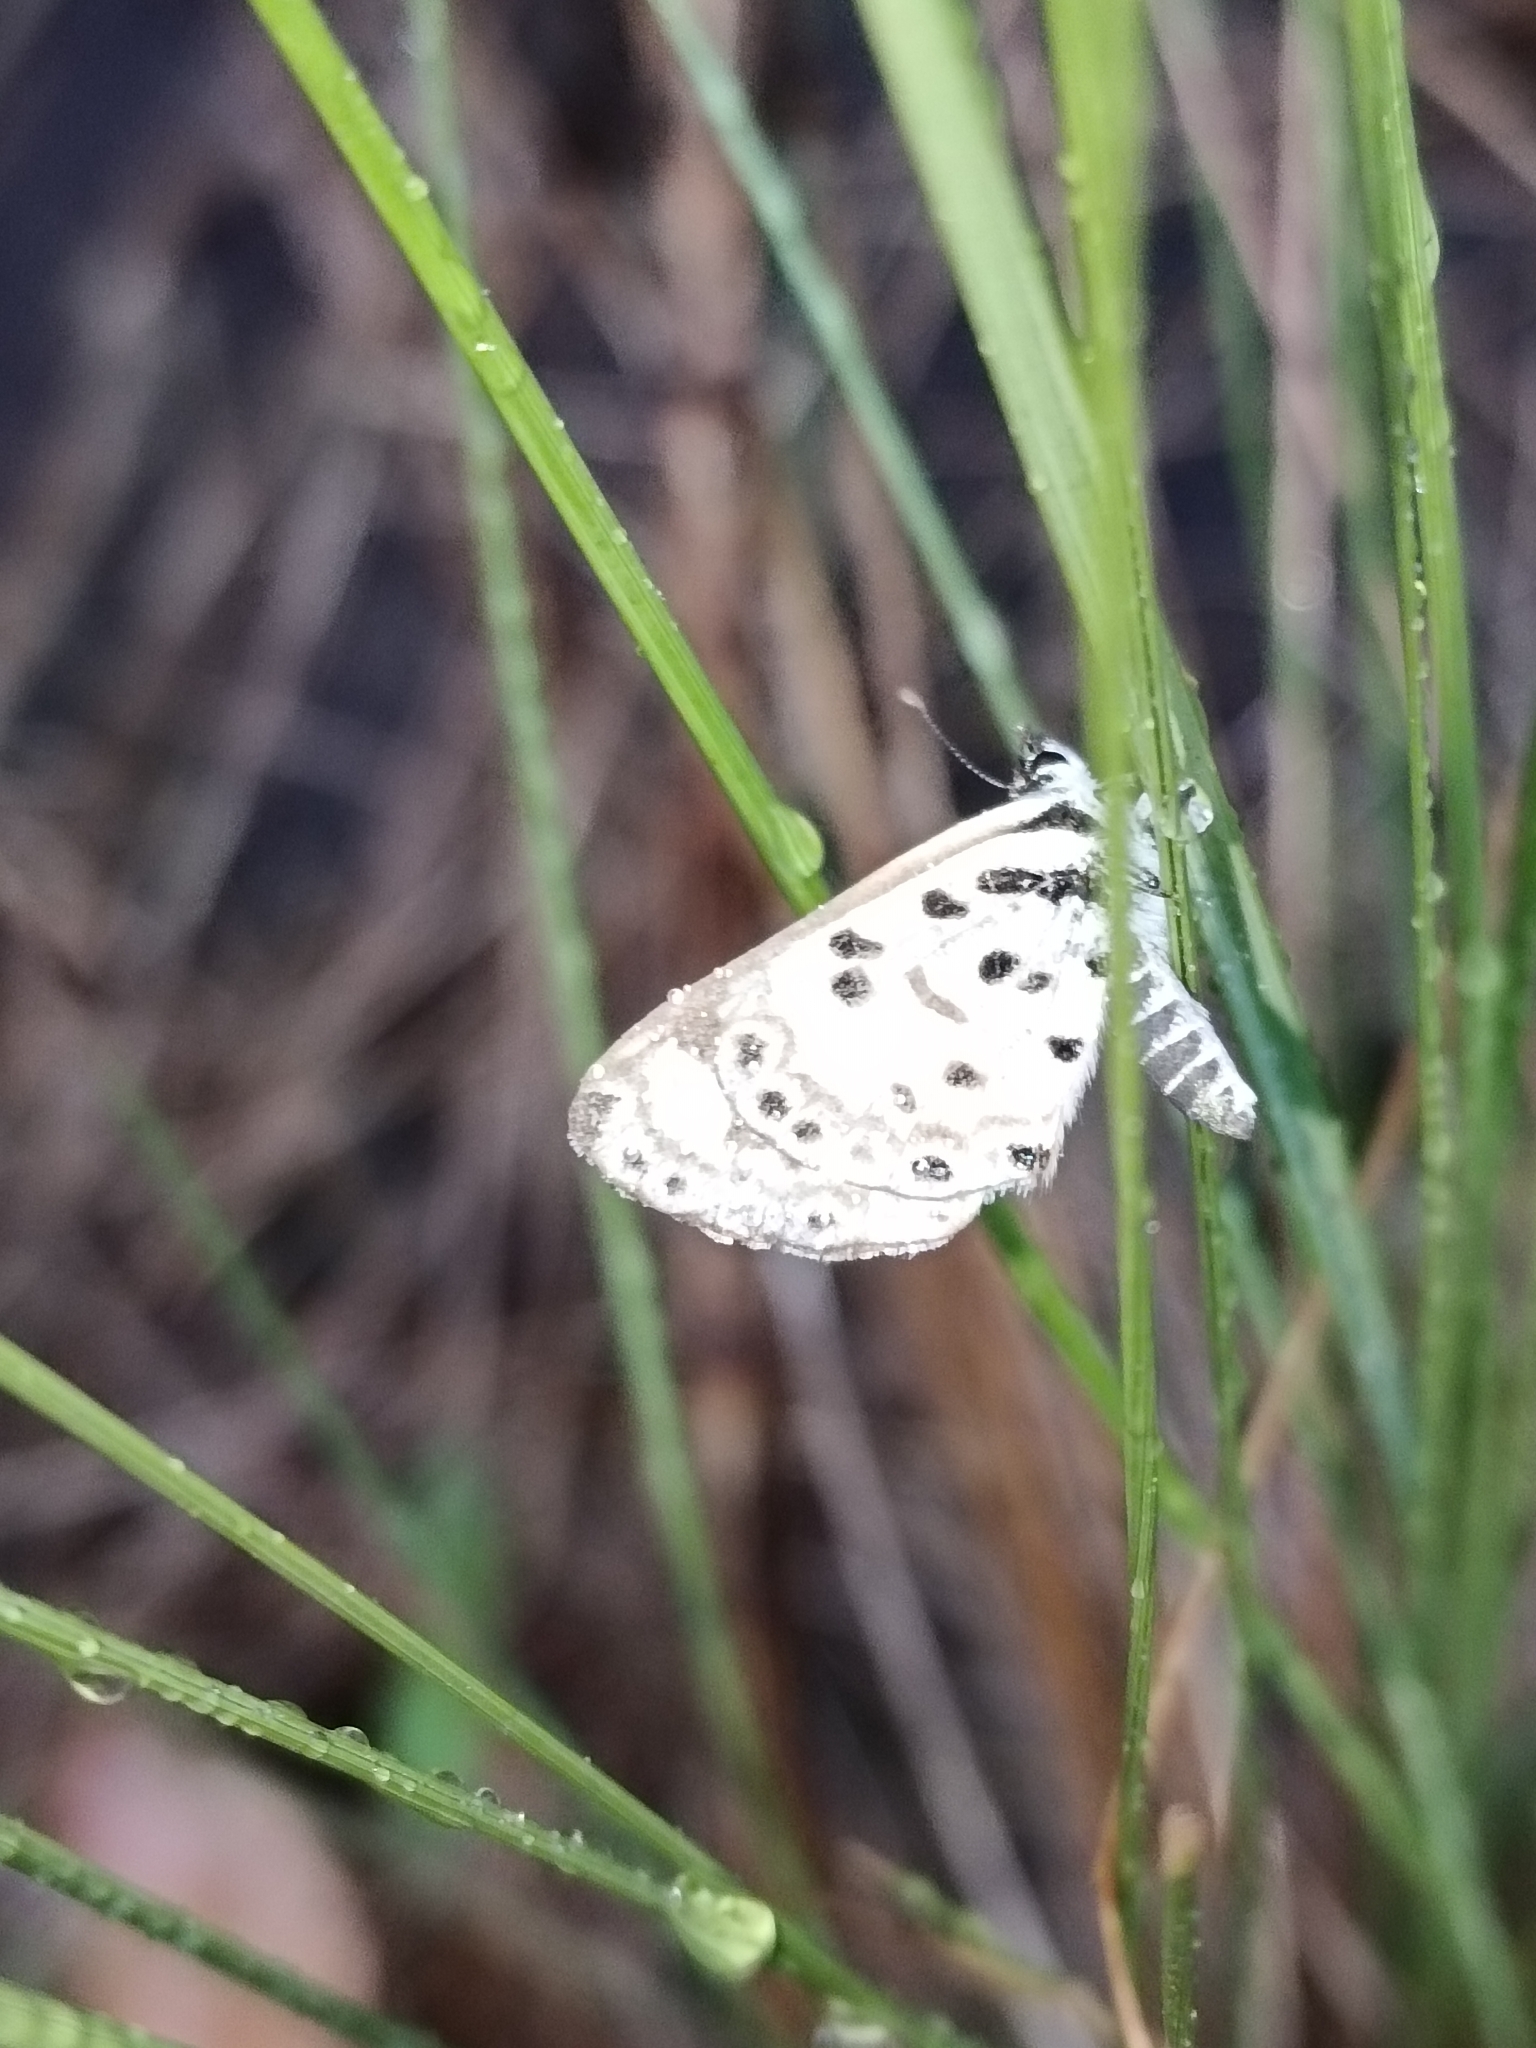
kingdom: Animalia
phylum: Arthropoda
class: Insecta
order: Lepidoptera
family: Lycaenidae
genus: Azanus
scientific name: Azanus natalensis
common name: Natal babul blue
